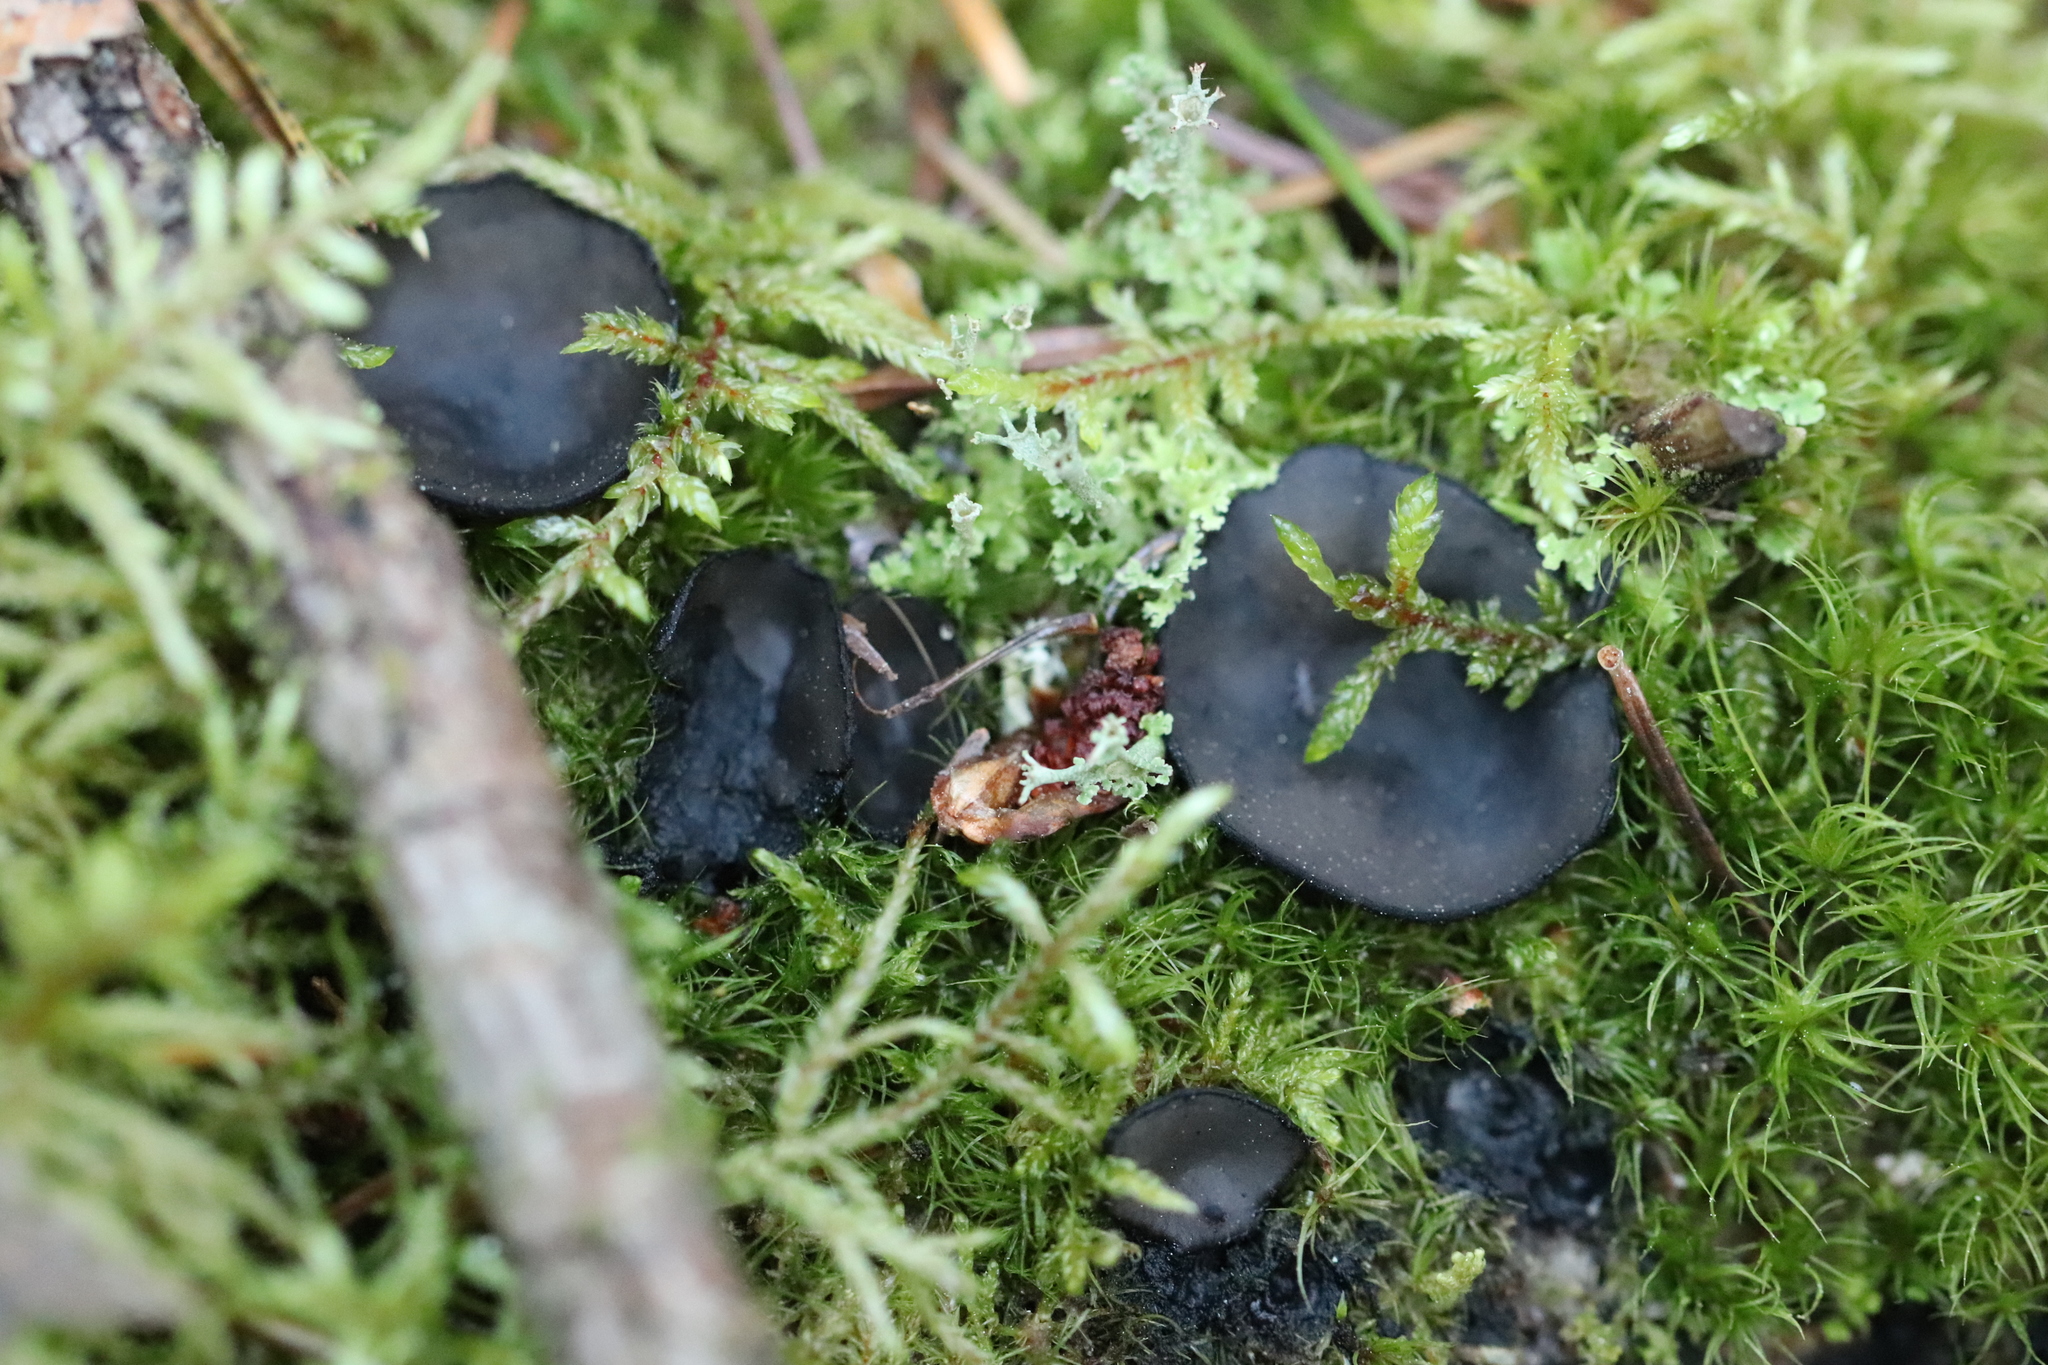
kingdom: Fungi
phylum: Ascomycota
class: Pezizomycetes
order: Pezizales
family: Sarcosomataceae
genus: Pseudoplectania
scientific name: Pseudoplectania nigrella
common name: Ebony cup
